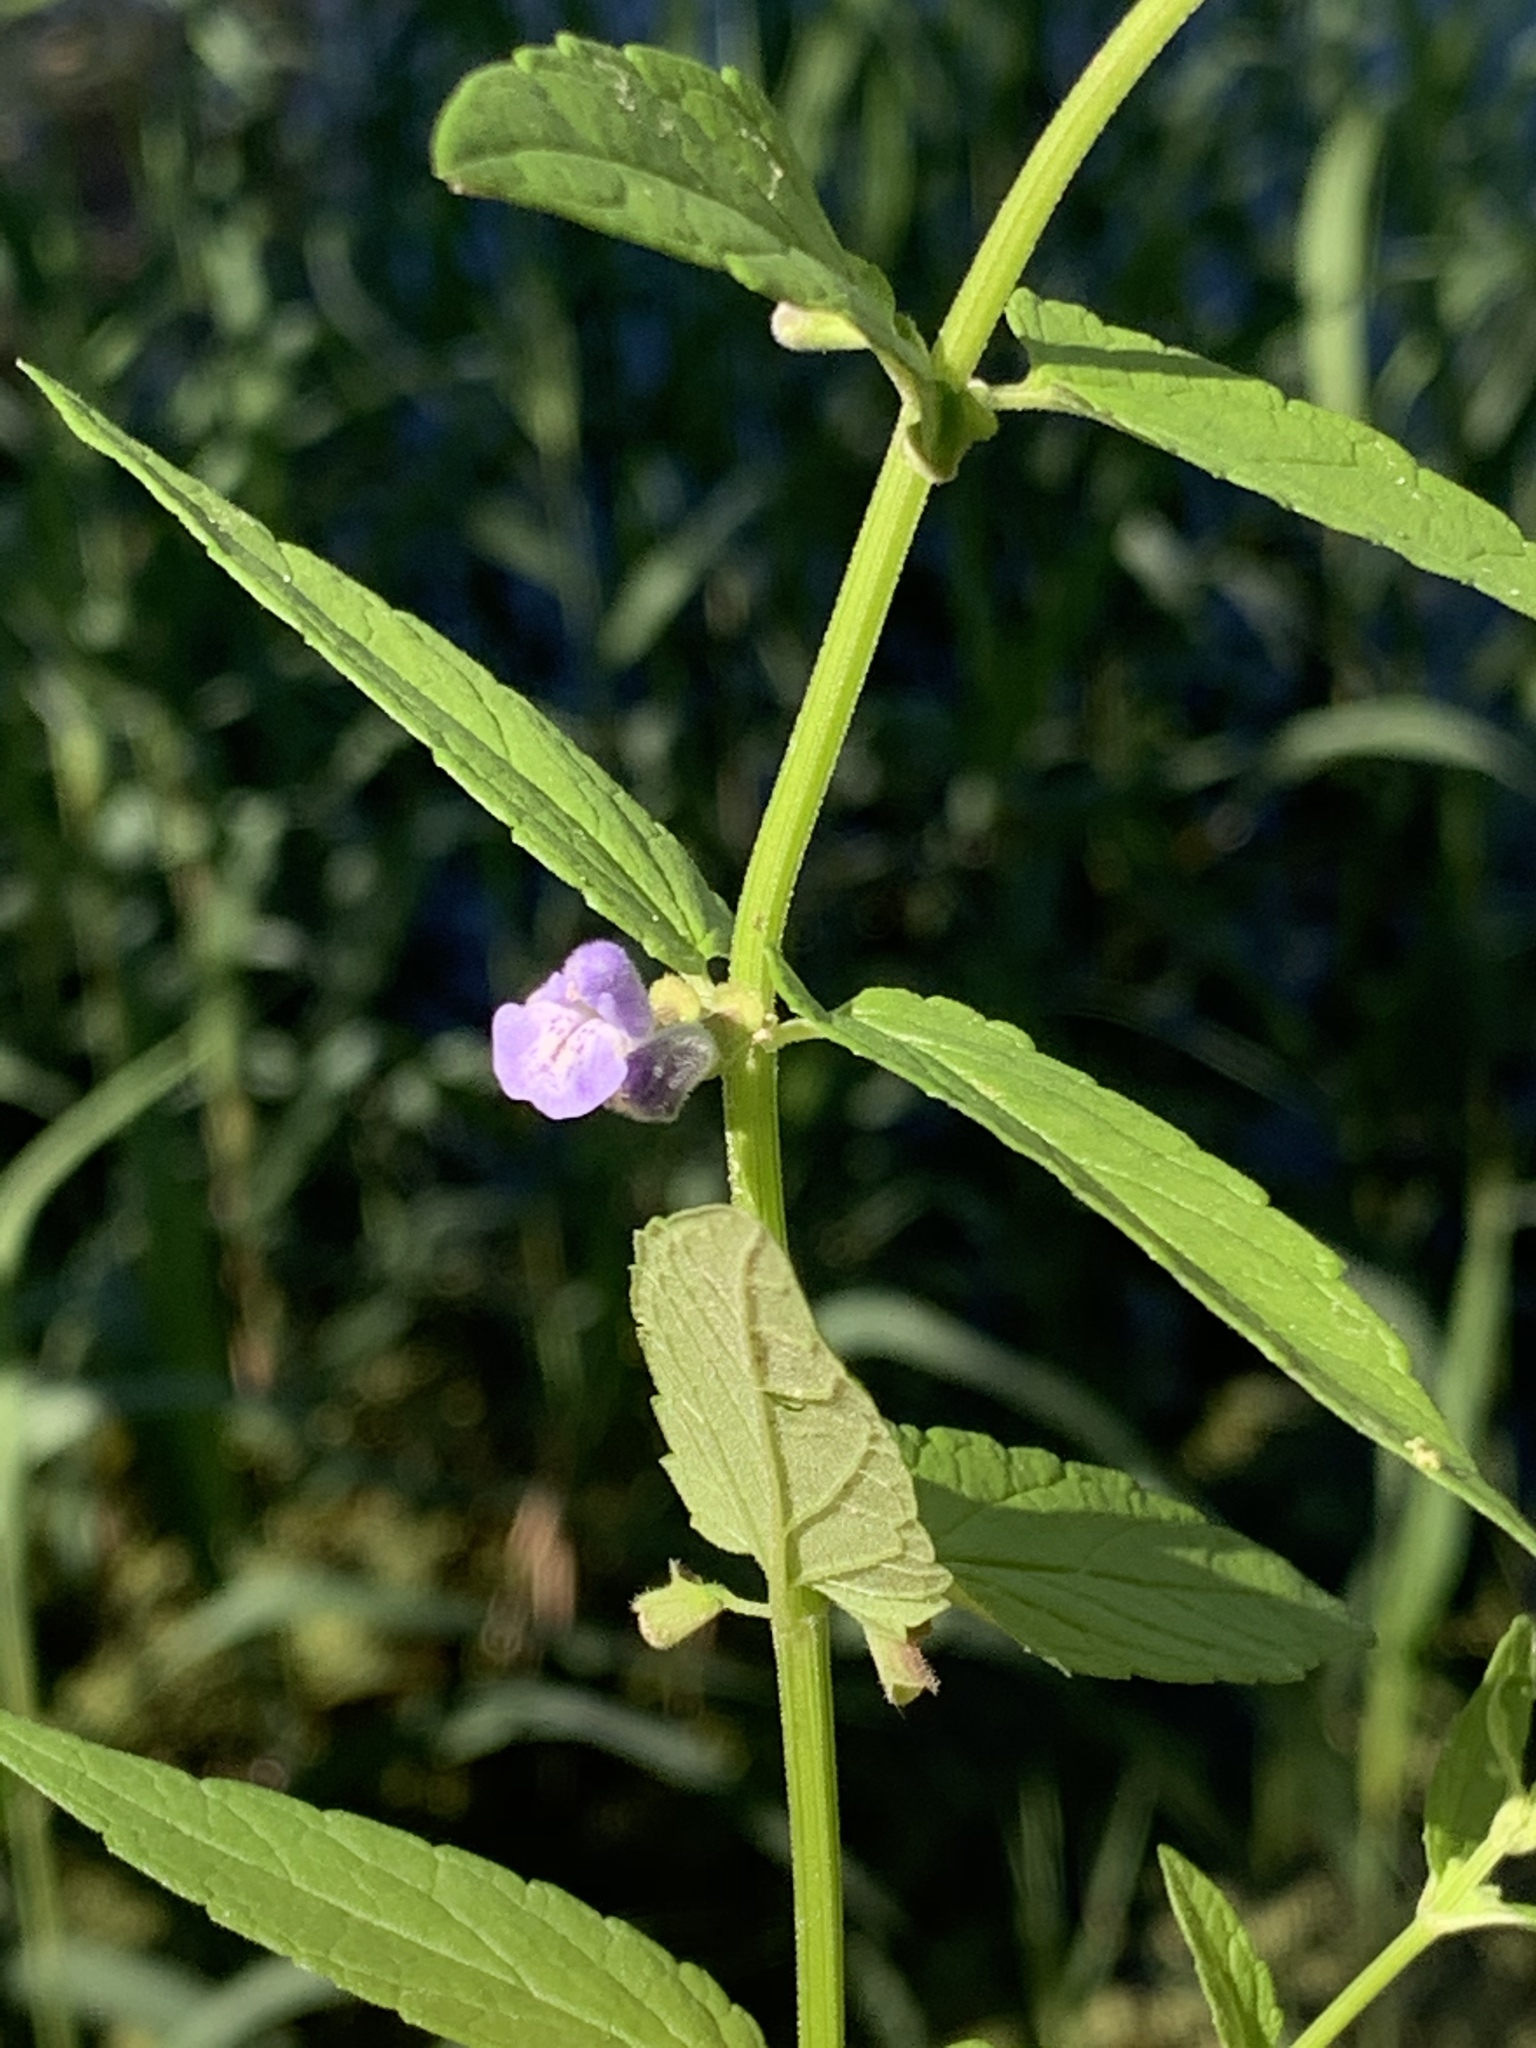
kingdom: Plantae
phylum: Tracheophyta
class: Magnoliopsida
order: Lamiales
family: Lamiaceae
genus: Scutellaria
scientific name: Scutellaria galericulata
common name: Skullcap
